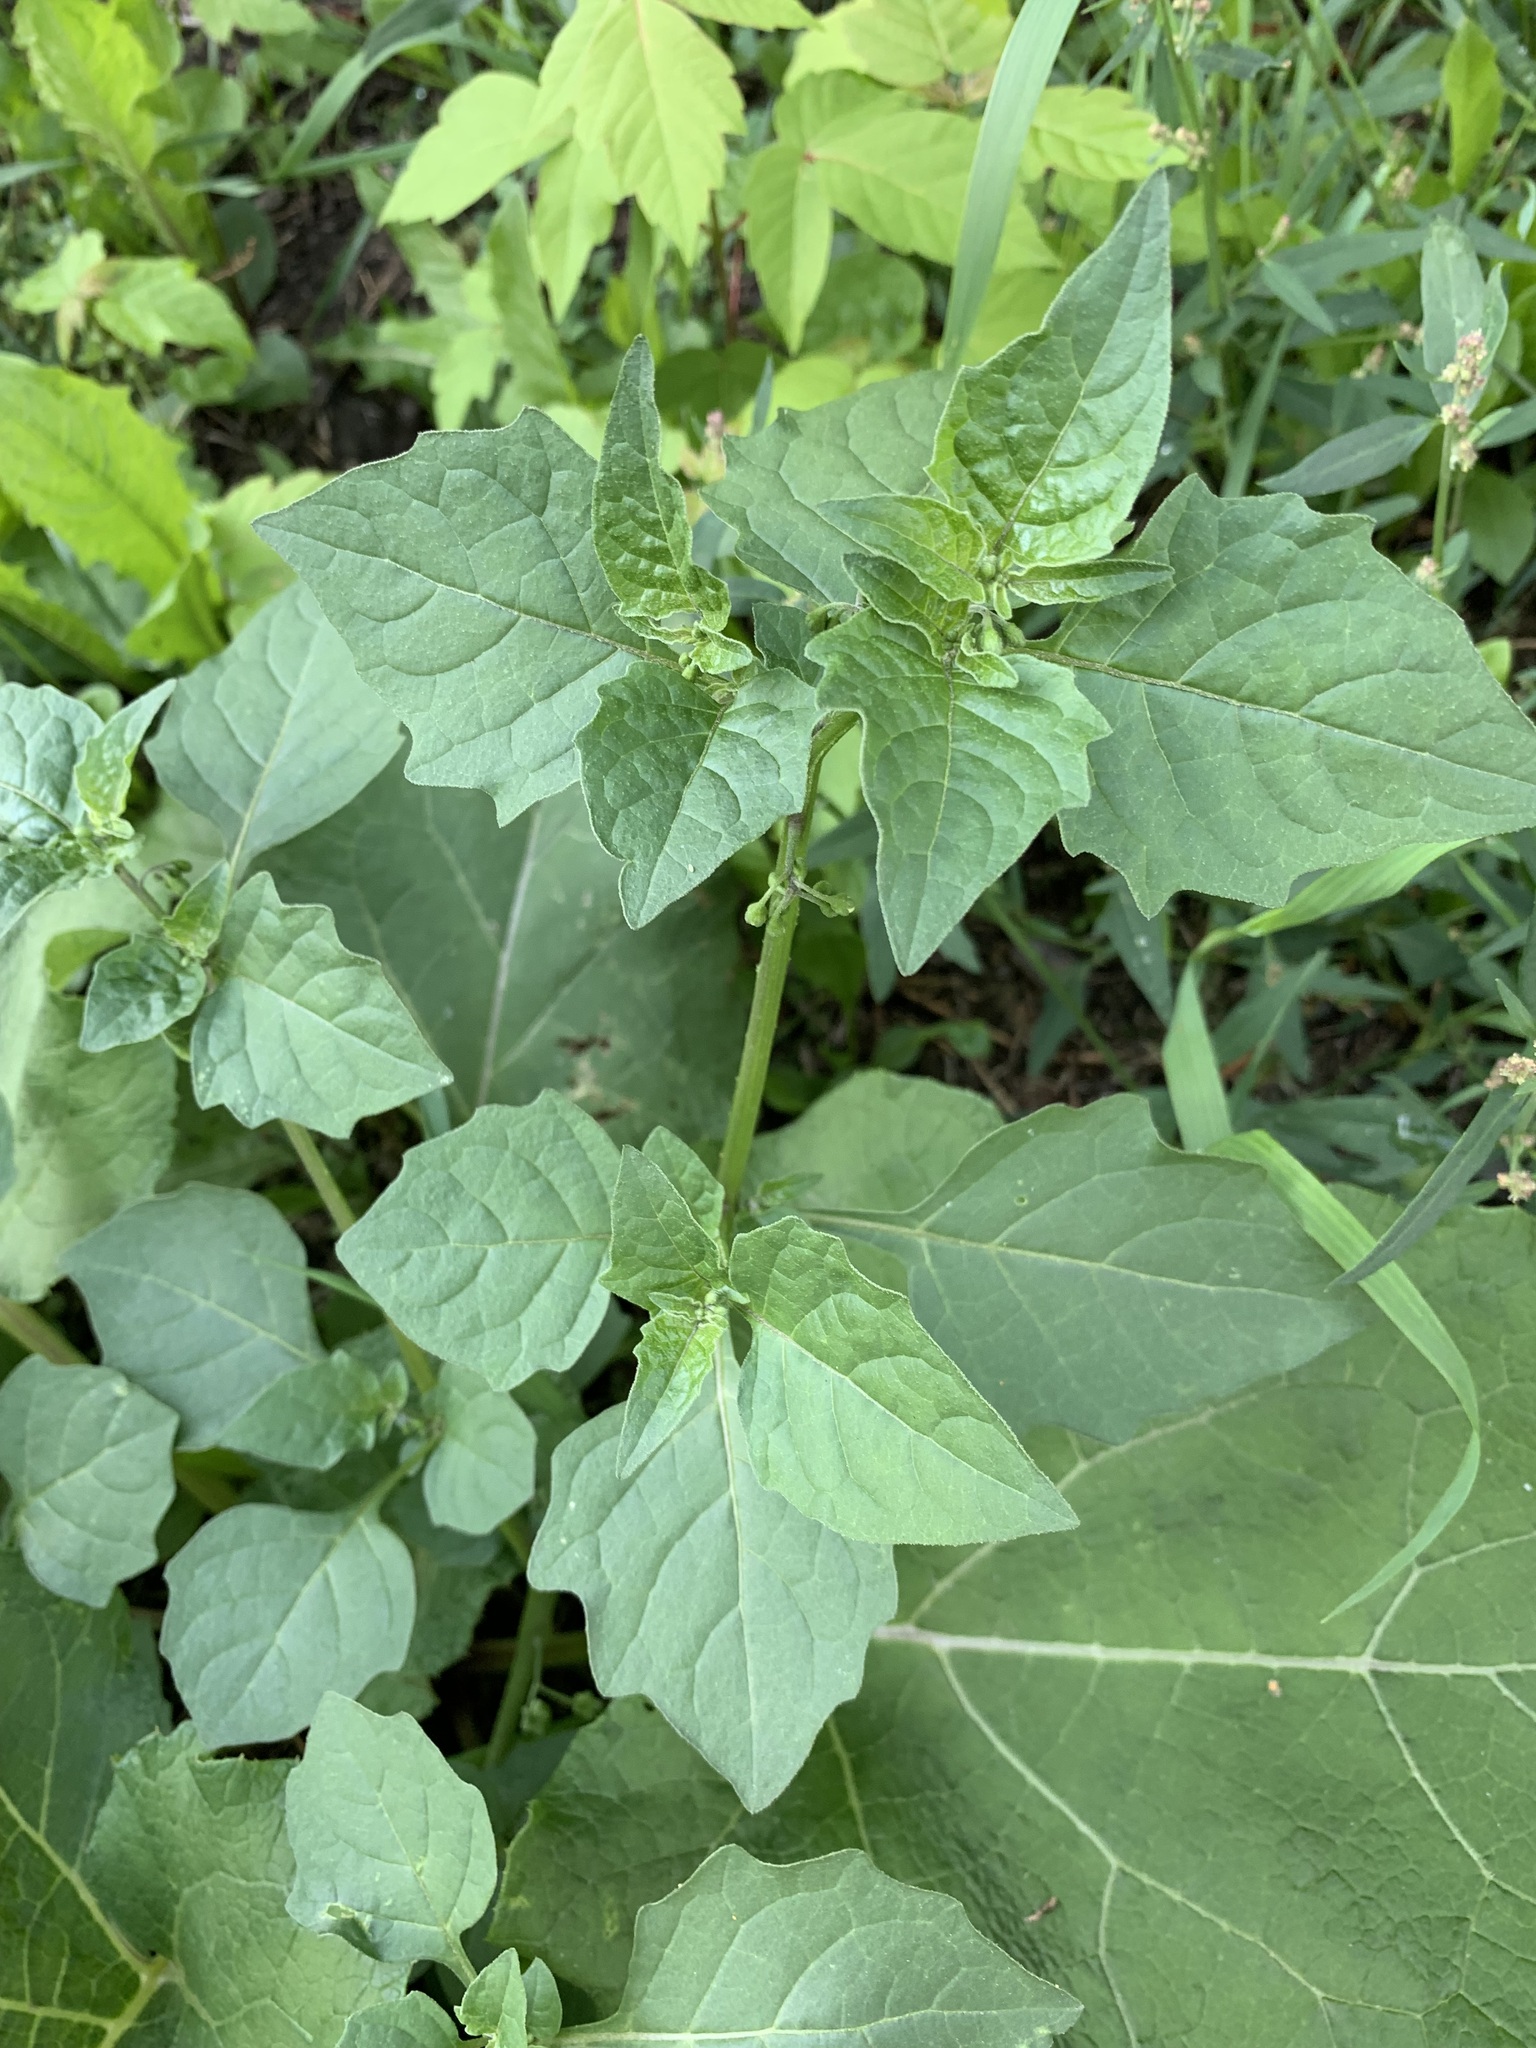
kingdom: Plantae
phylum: Tracheophyta
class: Magnoliopsida
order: Solanales
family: Solanaceae
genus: Solanum
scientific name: Solanum nigrum
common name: Black nightshade
